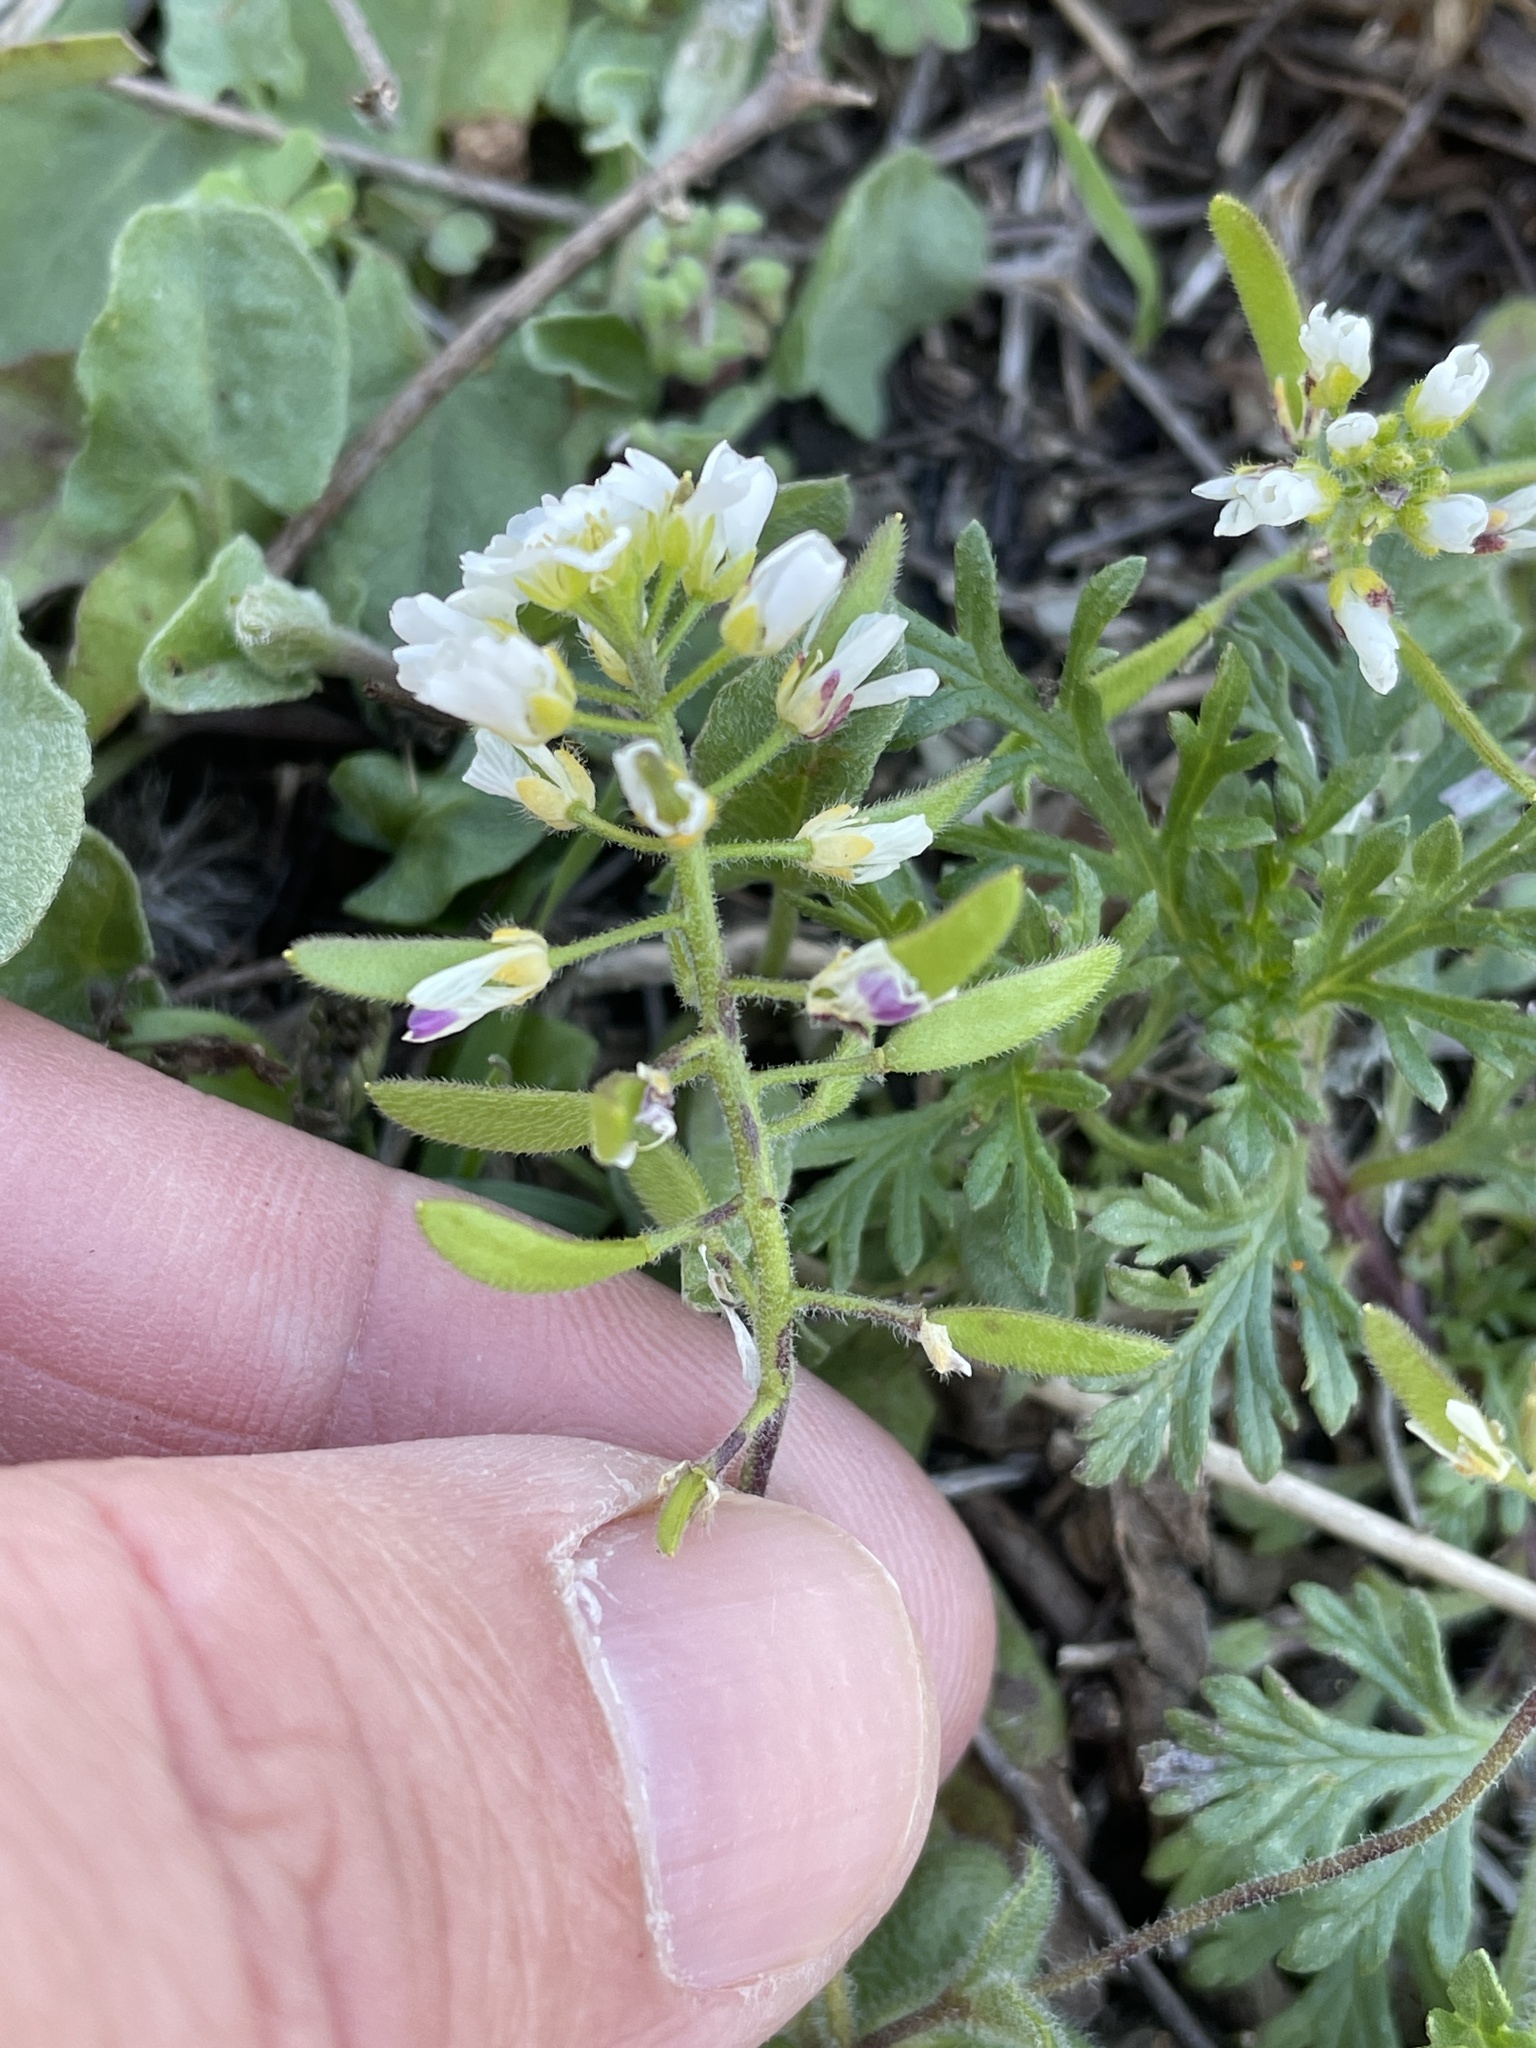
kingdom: Plantae
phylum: Tracheophyta
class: Magnoliopsida
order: Brassicales
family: Brassicaceae
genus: Tomostima
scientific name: Tomostima cuneifolia
